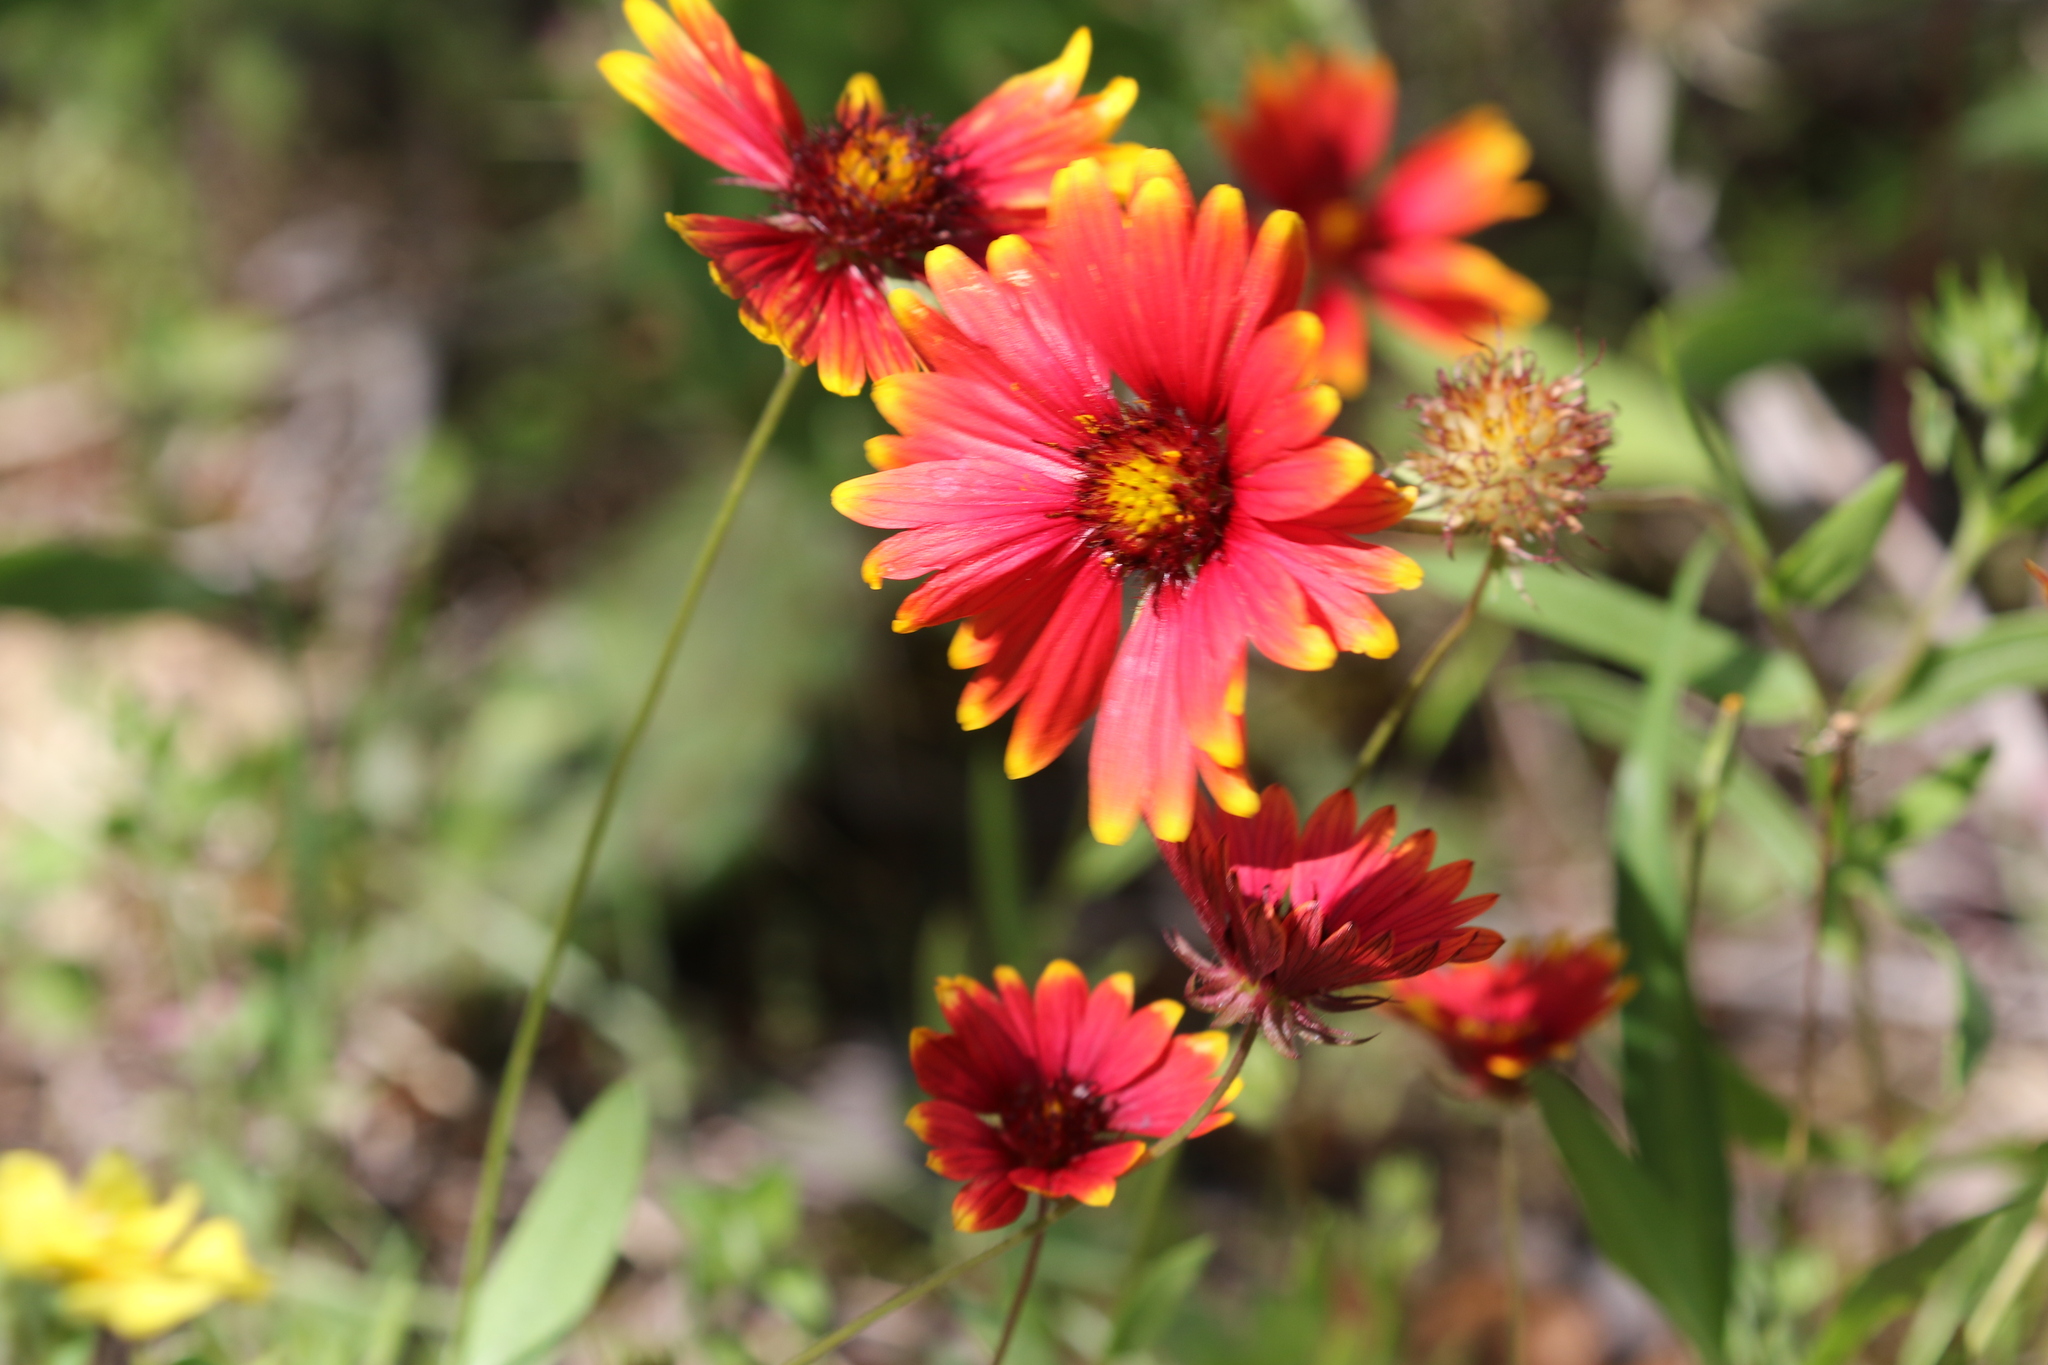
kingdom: Plantae
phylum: Tracheophyta
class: Magnoliopsida
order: Asterales
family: Asteraceae
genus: Gaillardia
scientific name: Gaillardia pulchella
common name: Firewheel
